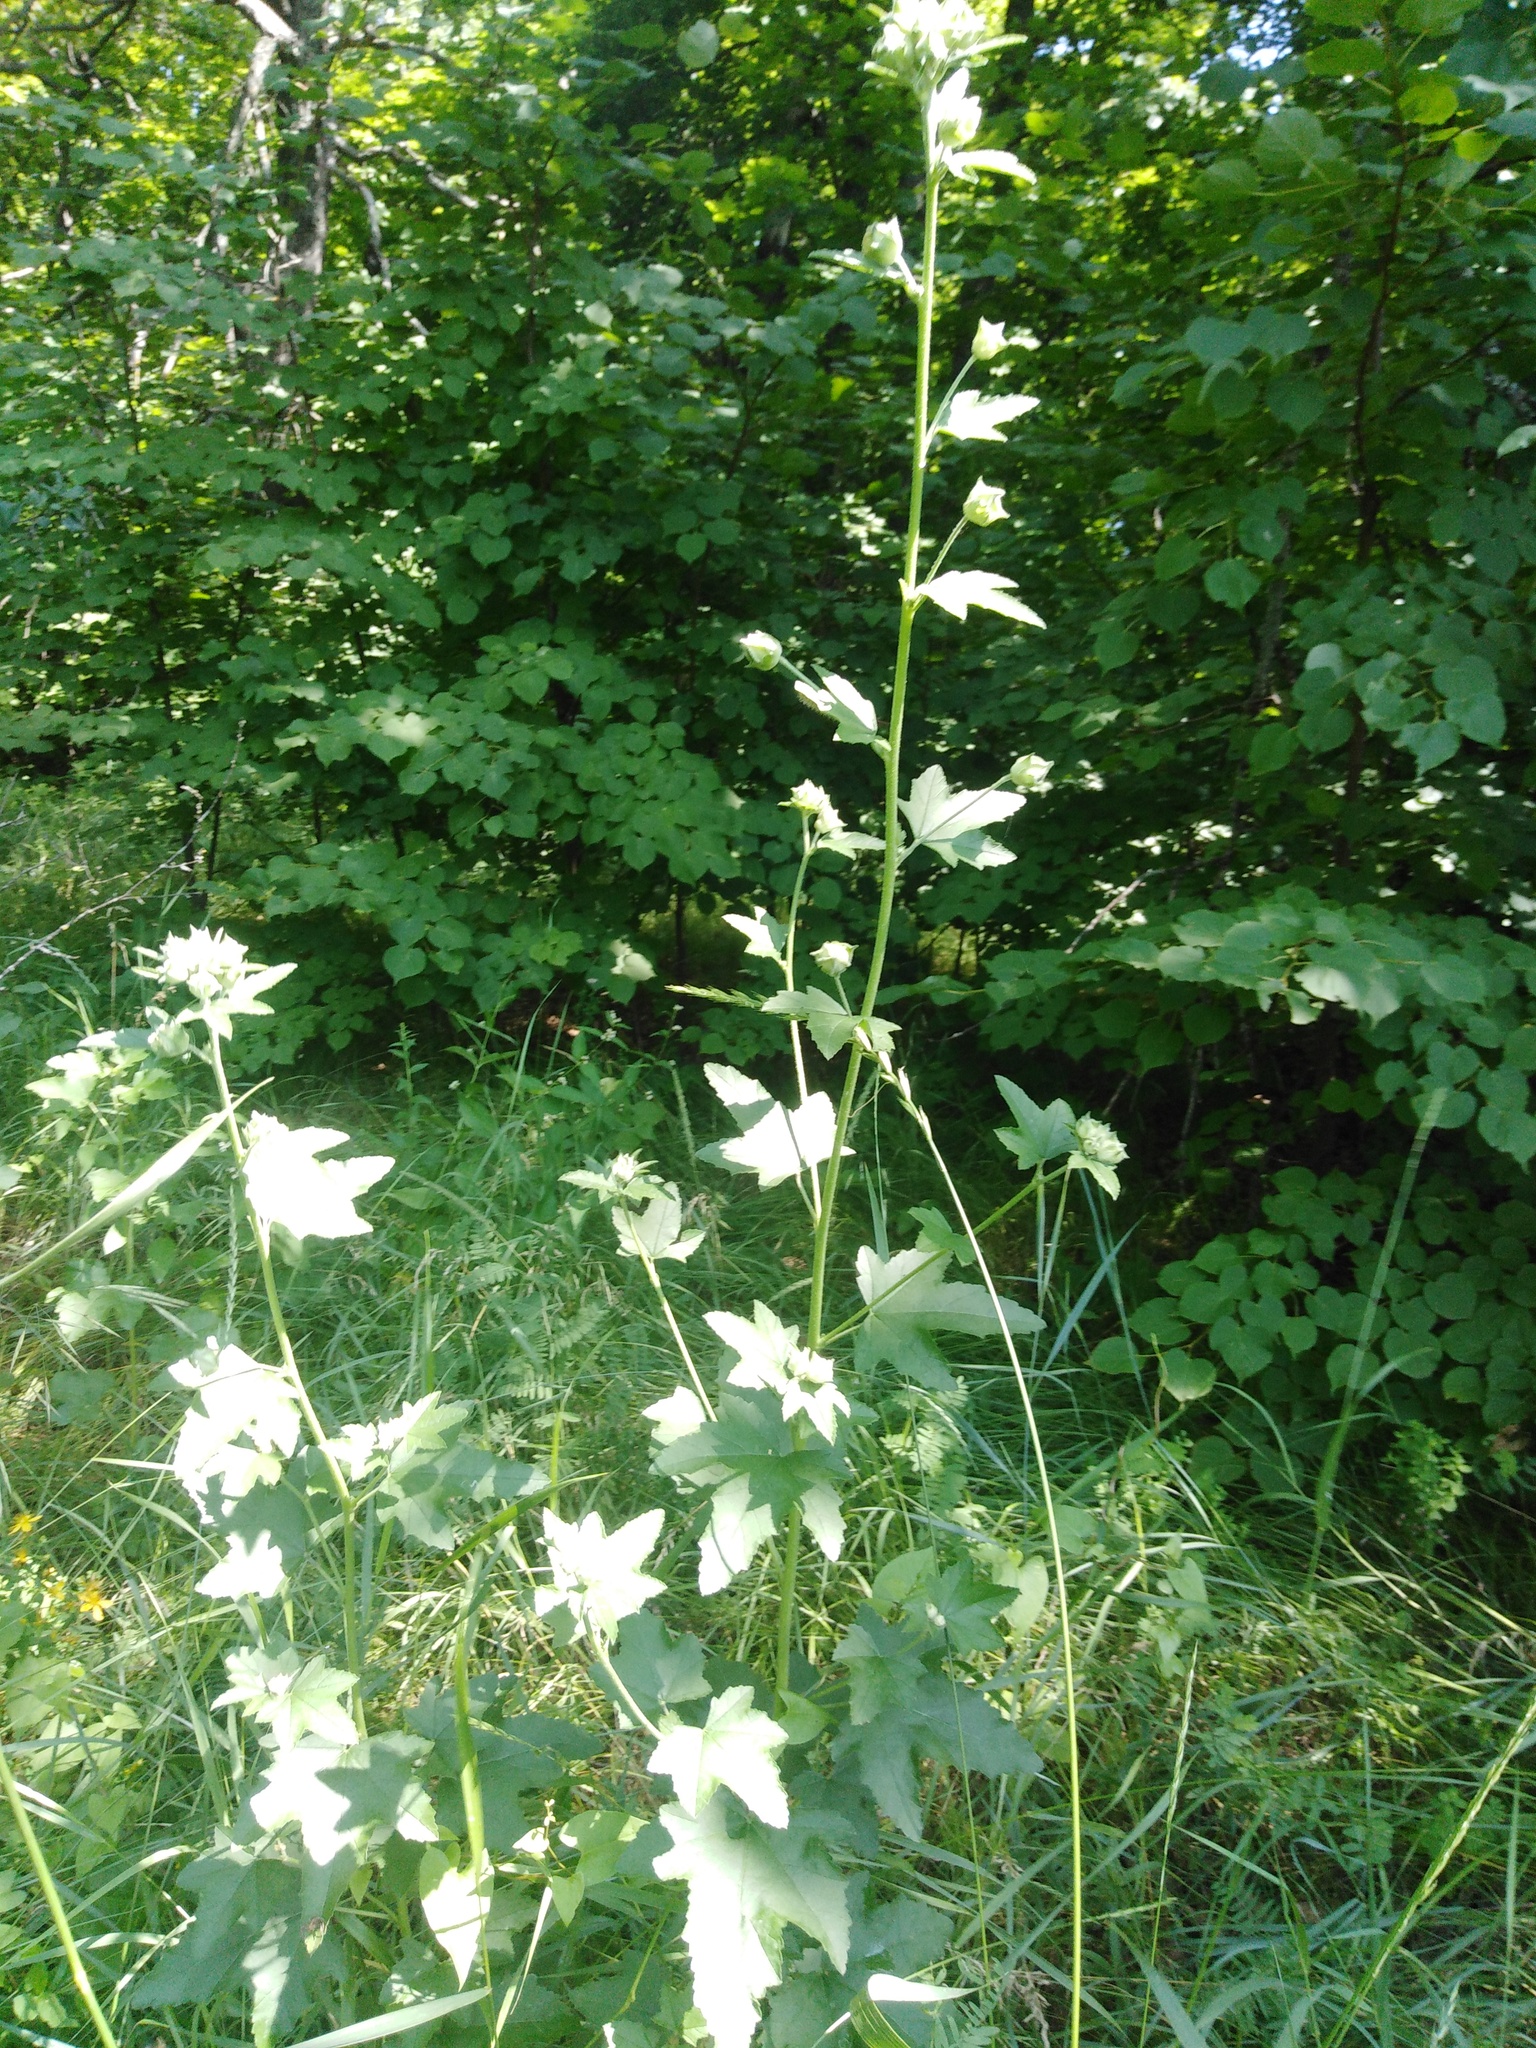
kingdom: Plantae
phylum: Tracheophyta
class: Magnoliopsida
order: Malvales
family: Malvaceae
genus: Malva
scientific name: Malva thuringiaca
